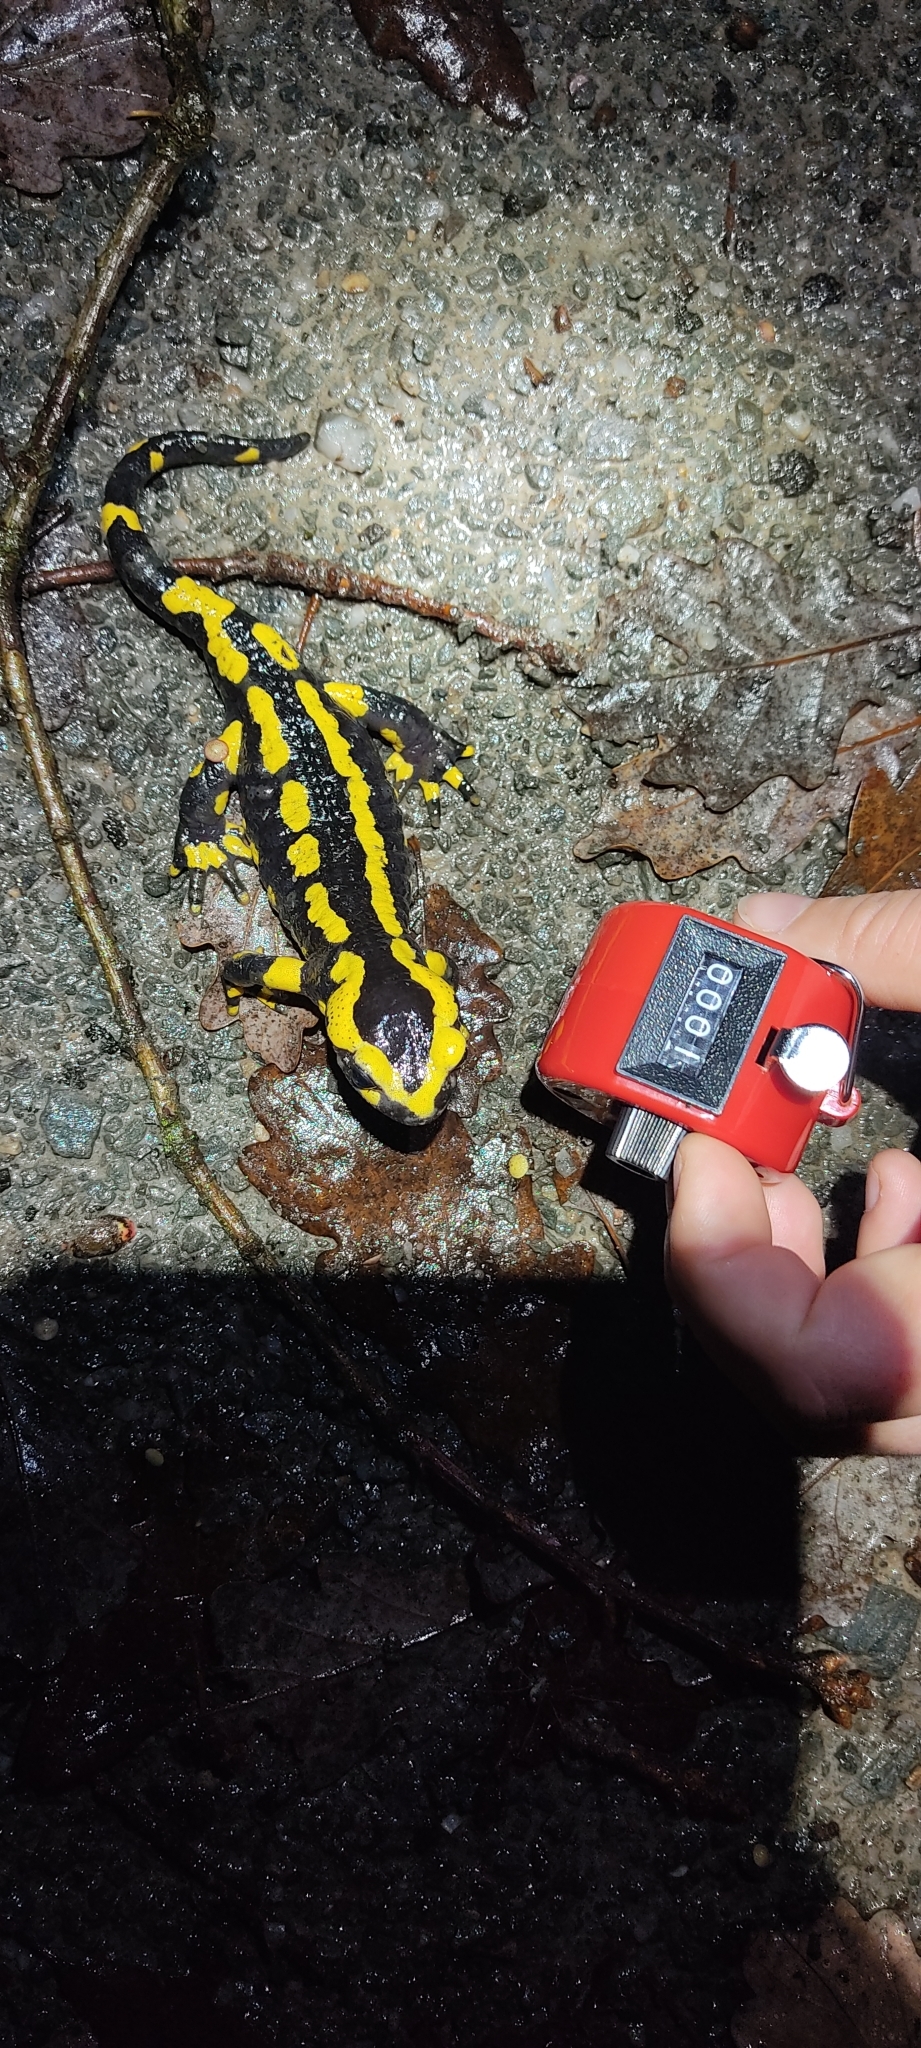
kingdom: Animalia
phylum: Chordata
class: Amphibia
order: Caudata
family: Salamandridae
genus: Salamandra
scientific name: Salamandra salamandra
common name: Fire salamander
